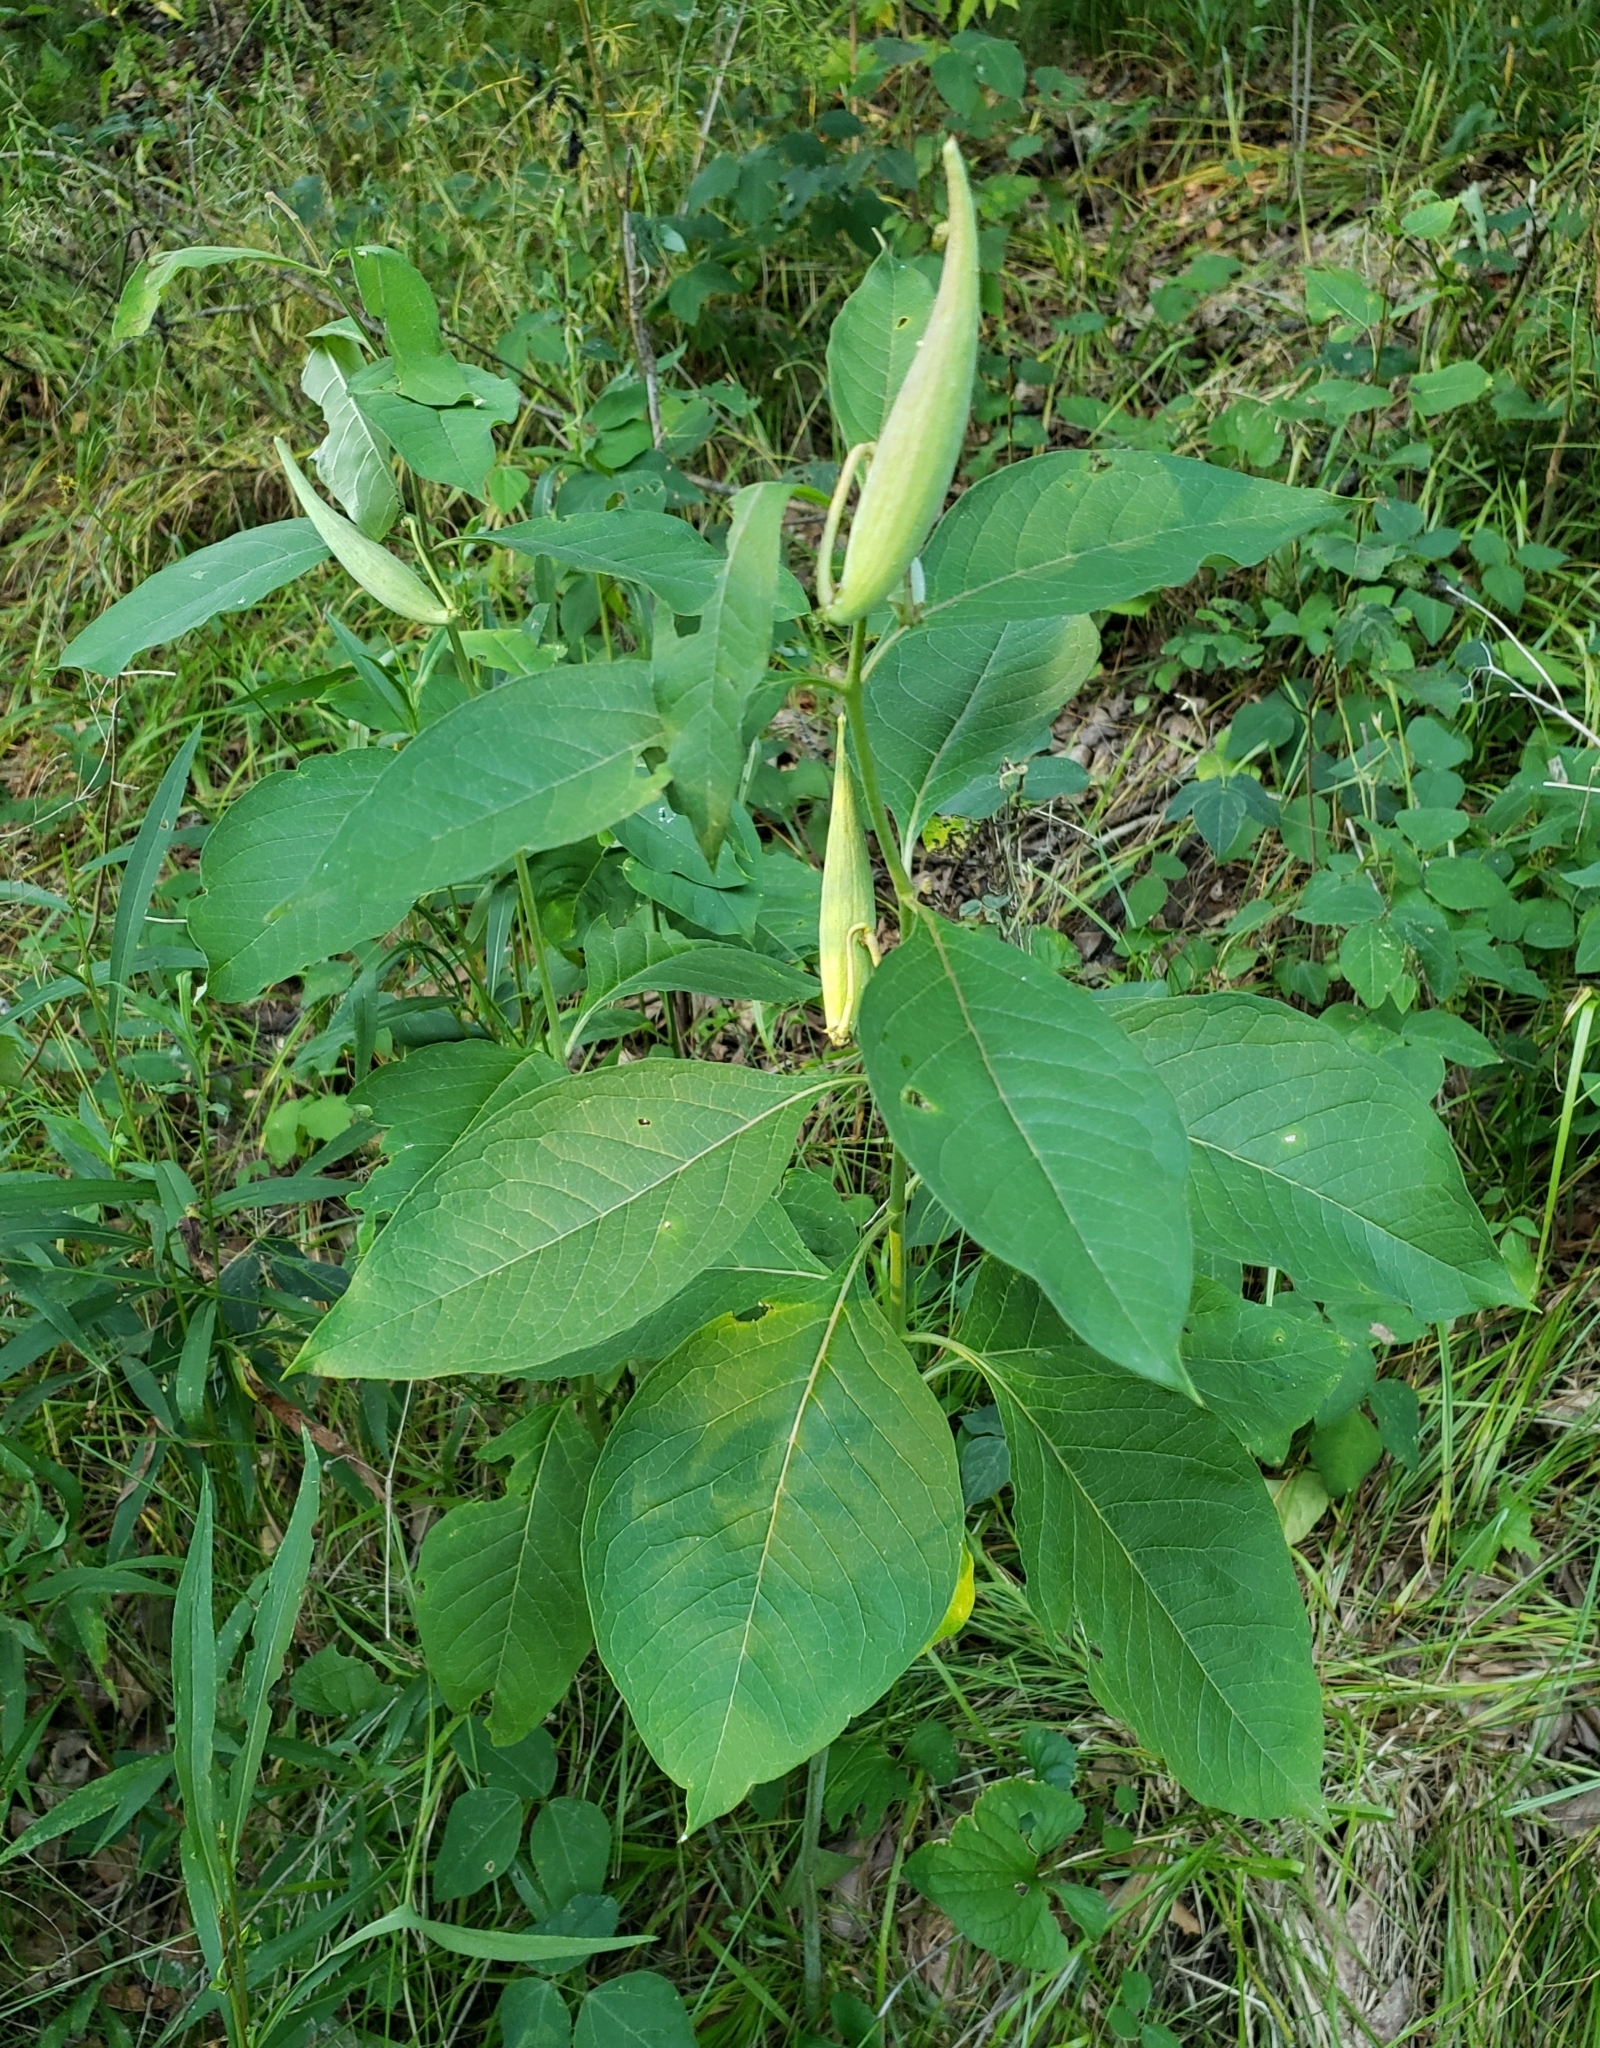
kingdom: Plantae
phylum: Tracheophyta
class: Magnoliopsida
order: Gentianales
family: Apocynaceae
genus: Asclepias
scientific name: Asclepias exaltata
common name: Poke milkweed
